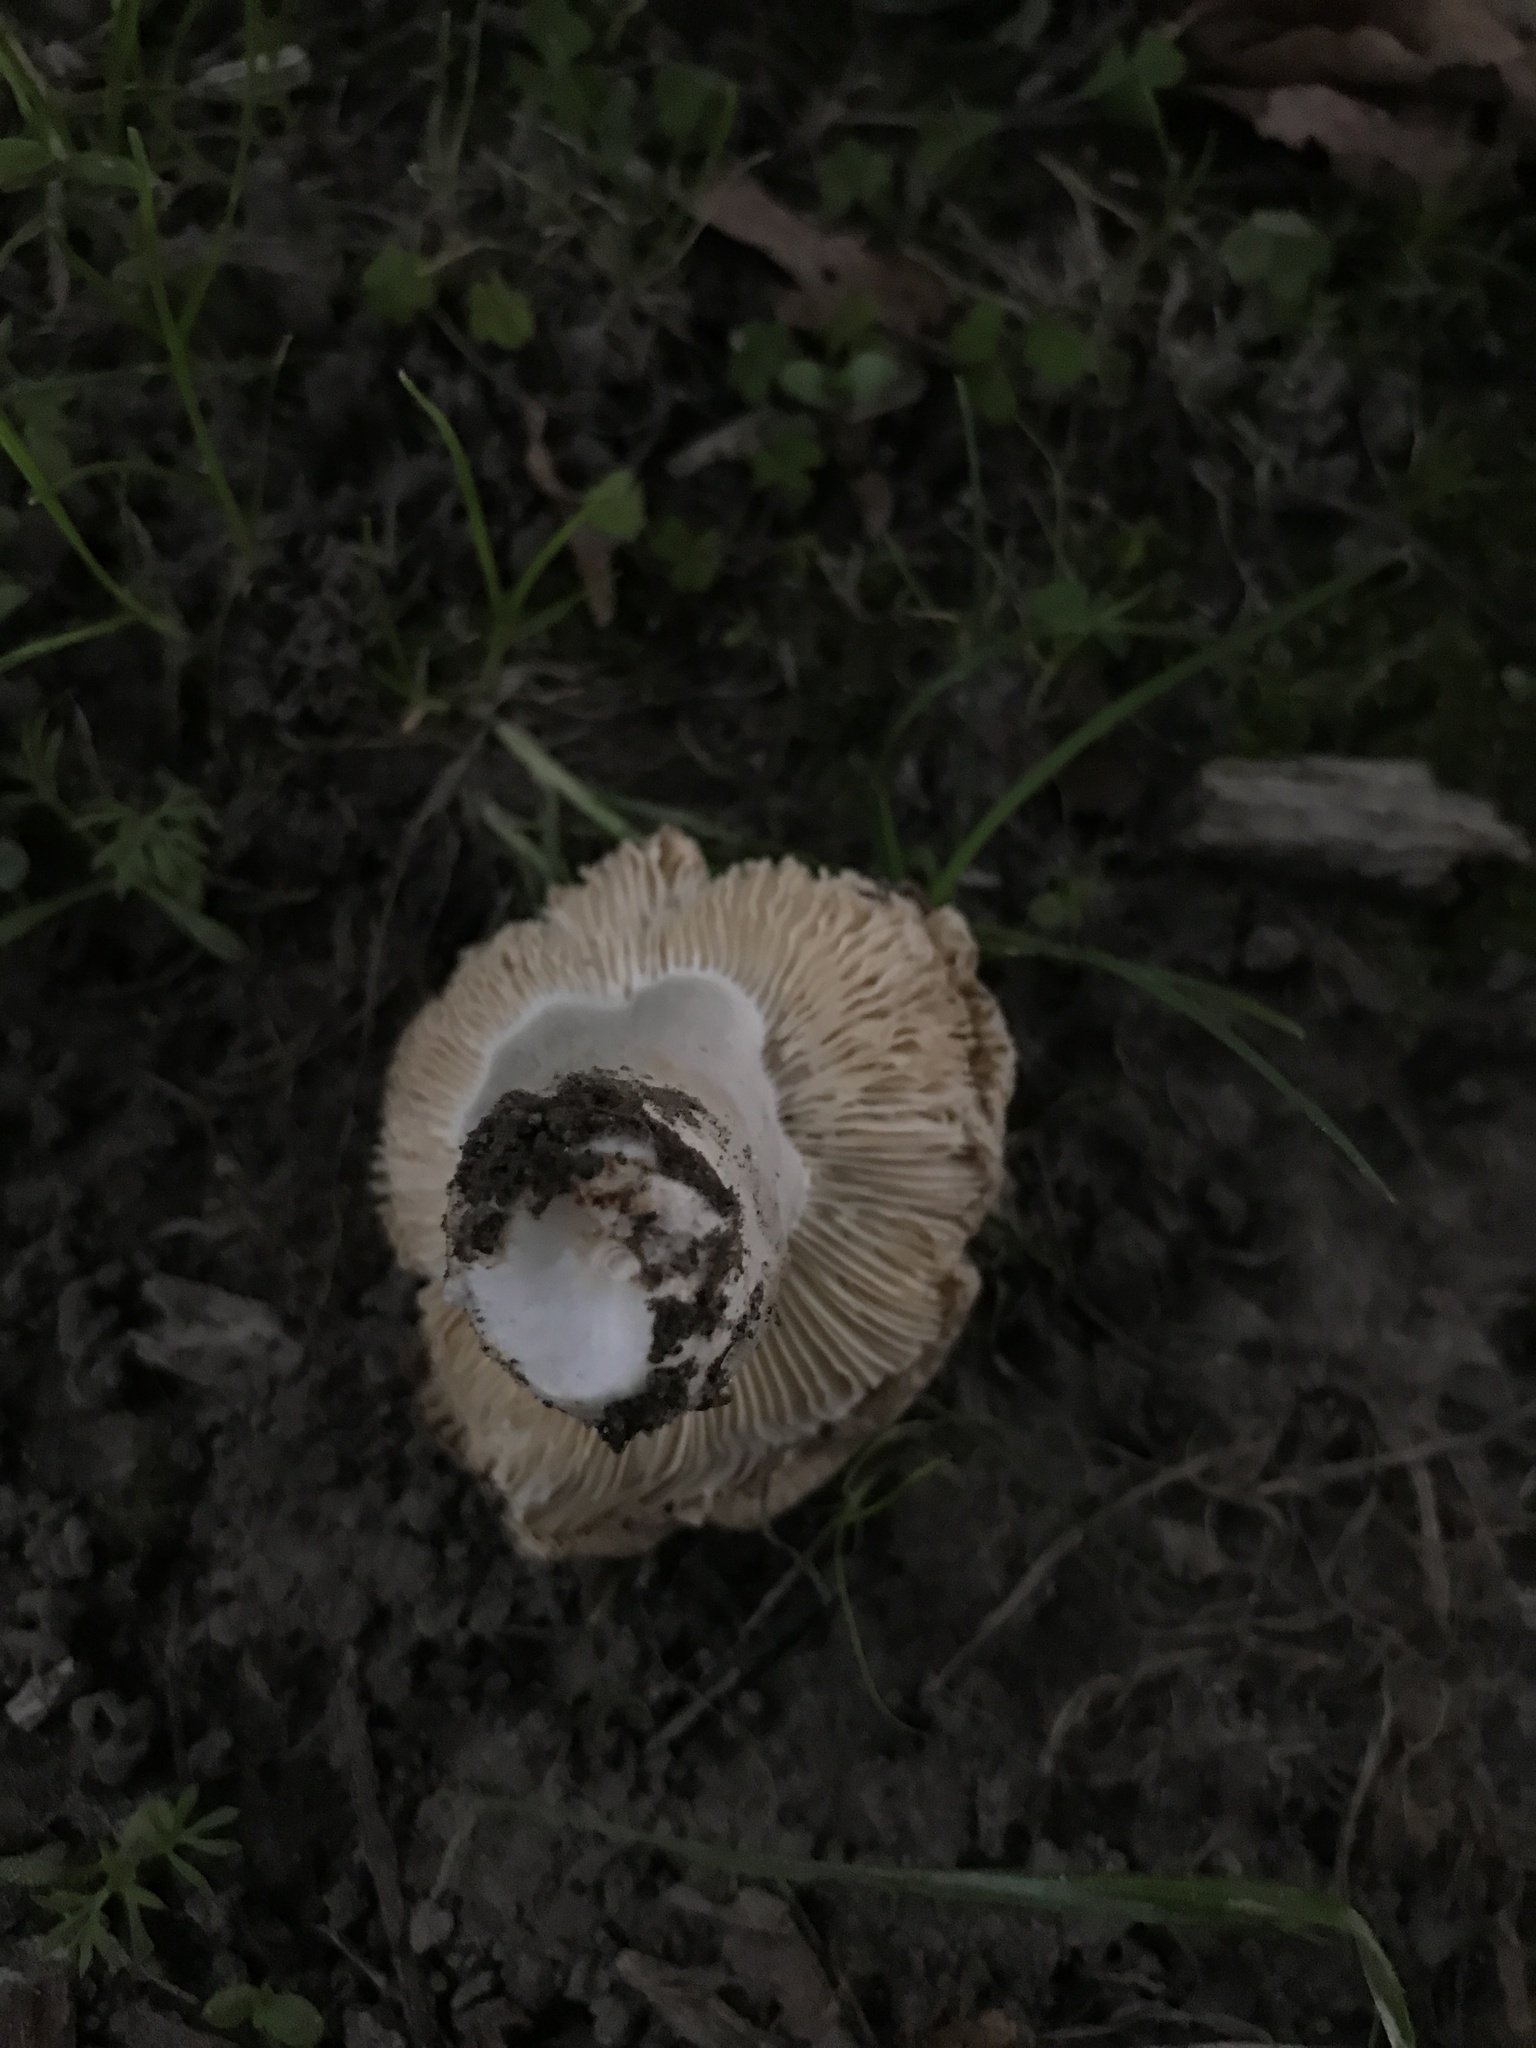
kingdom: Fungi
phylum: Basidiomycota
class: Agaricomycetes
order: Russulales
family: Russulaceae
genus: Russula
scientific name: Russula amoenolens
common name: Camembert brittlegill
